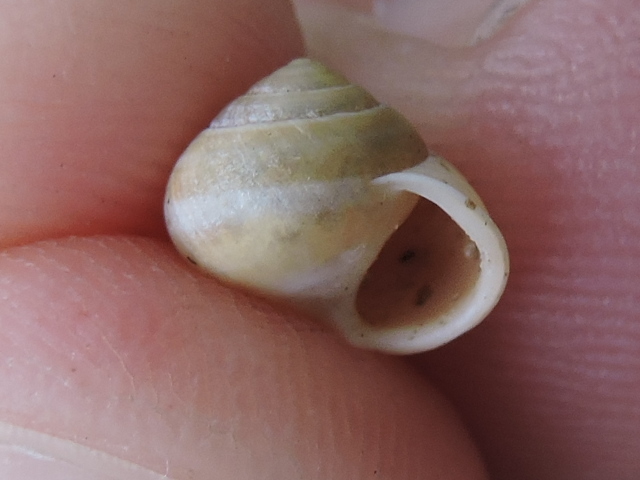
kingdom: Animalia
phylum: Mollusca
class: Gastropoda
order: Cycloneritida
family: Helicinidae
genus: Helicina
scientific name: Helicina orbiculata
